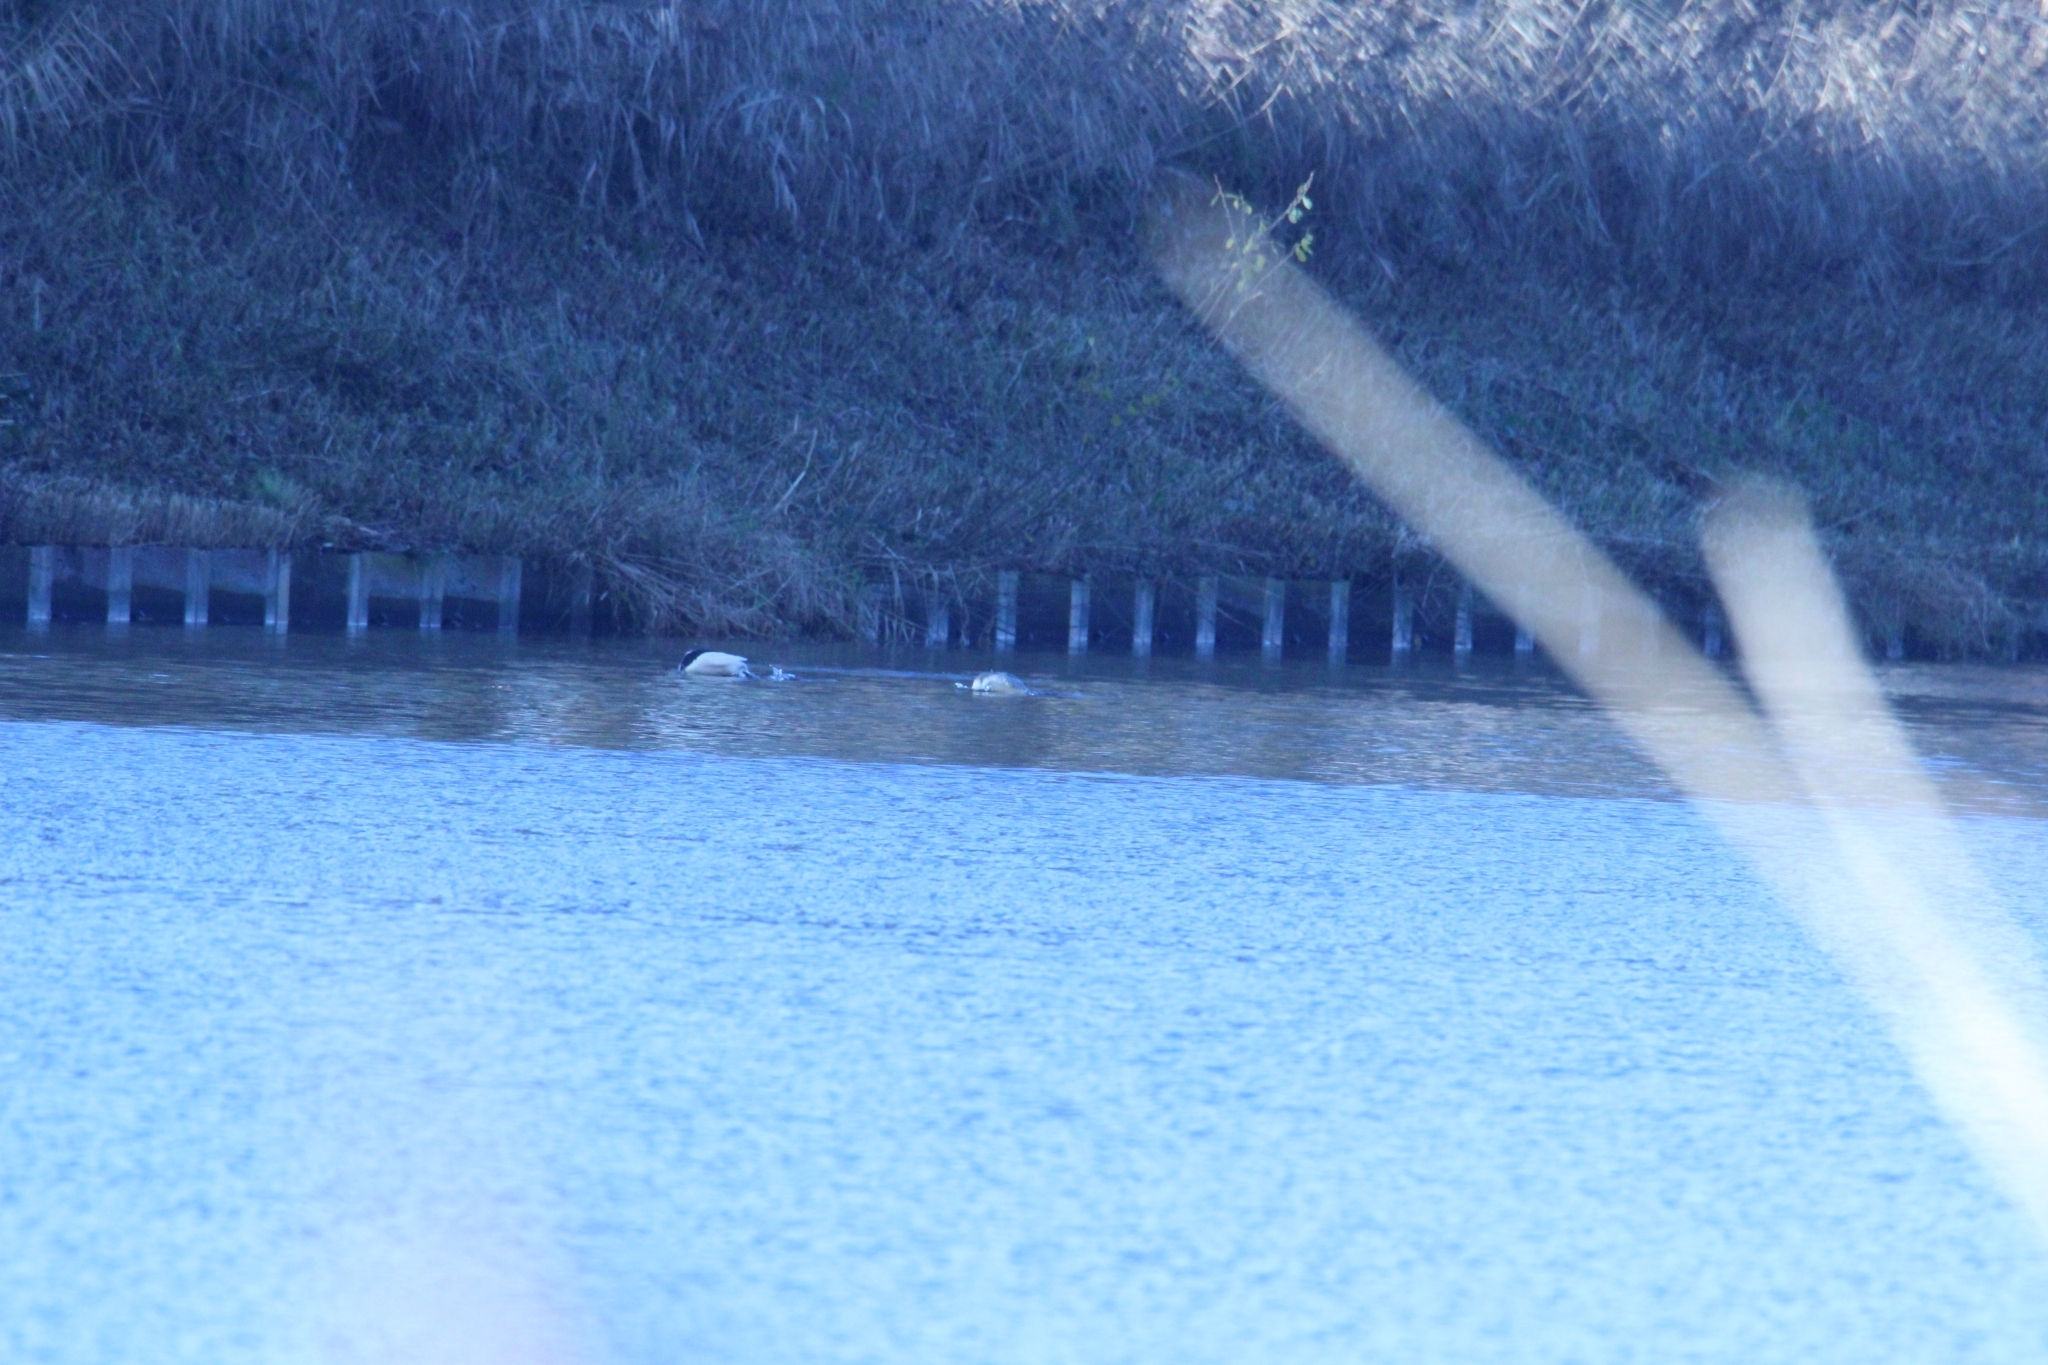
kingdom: Animalia
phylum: Chordata
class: Aves
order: Anseriformes
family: Anatidae
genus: Mergus
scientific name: Mergus merganser
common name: Common merganser
